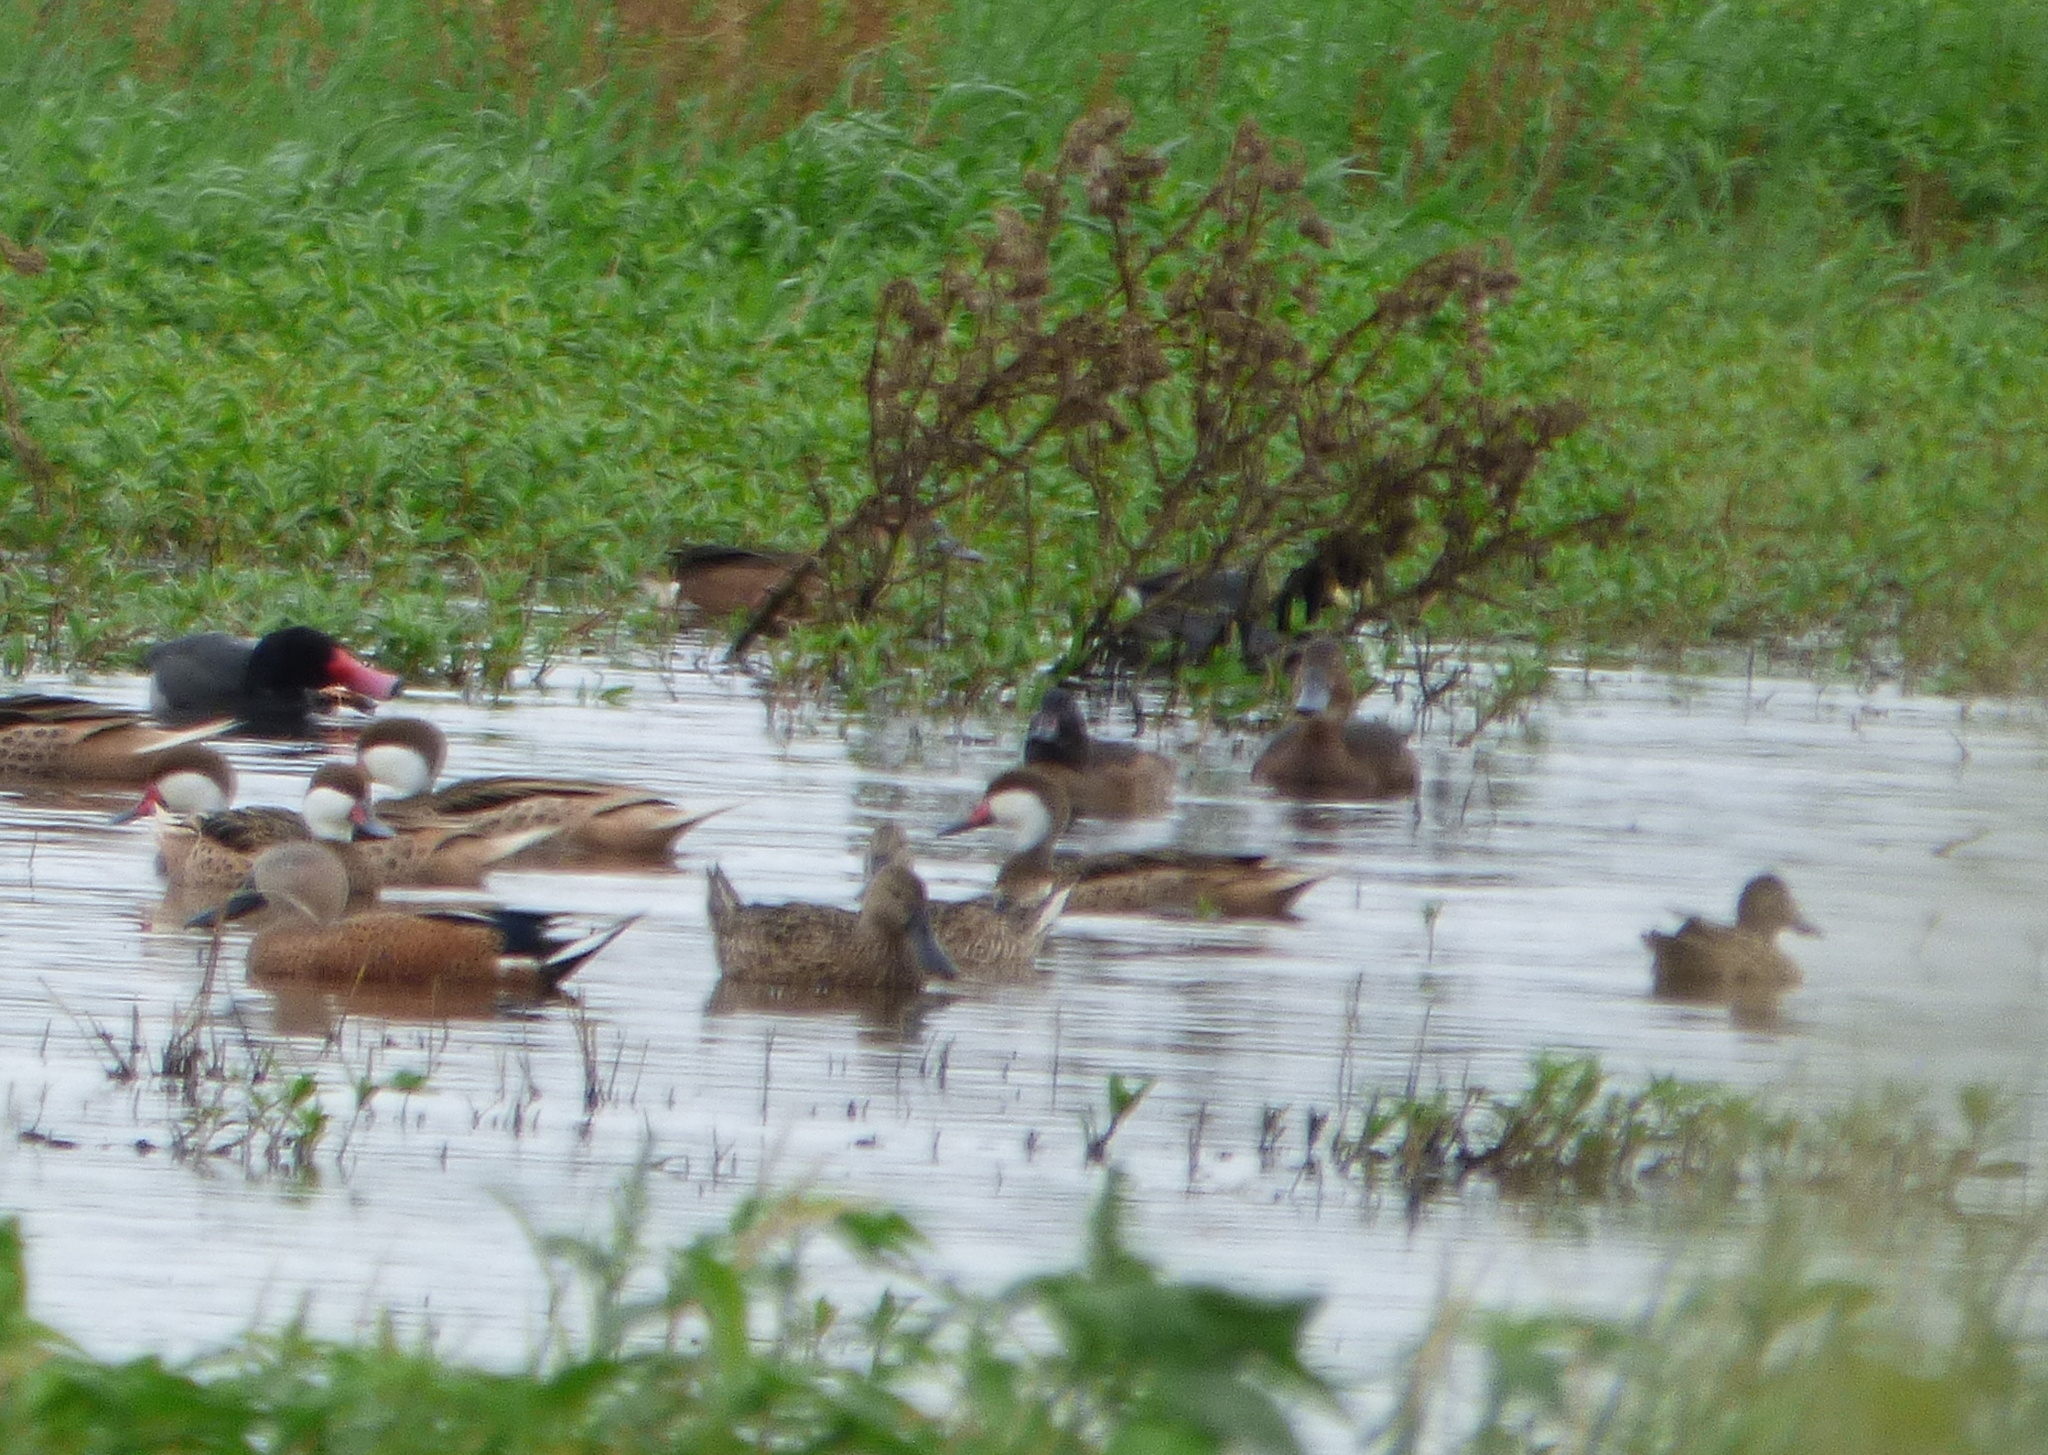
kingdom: Animalia
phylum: Chordata
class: Aves
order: Anseriformes
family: Anatidae
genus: Heteronetta
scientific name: Heteronetta atricapilla
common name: Black-headed duck
